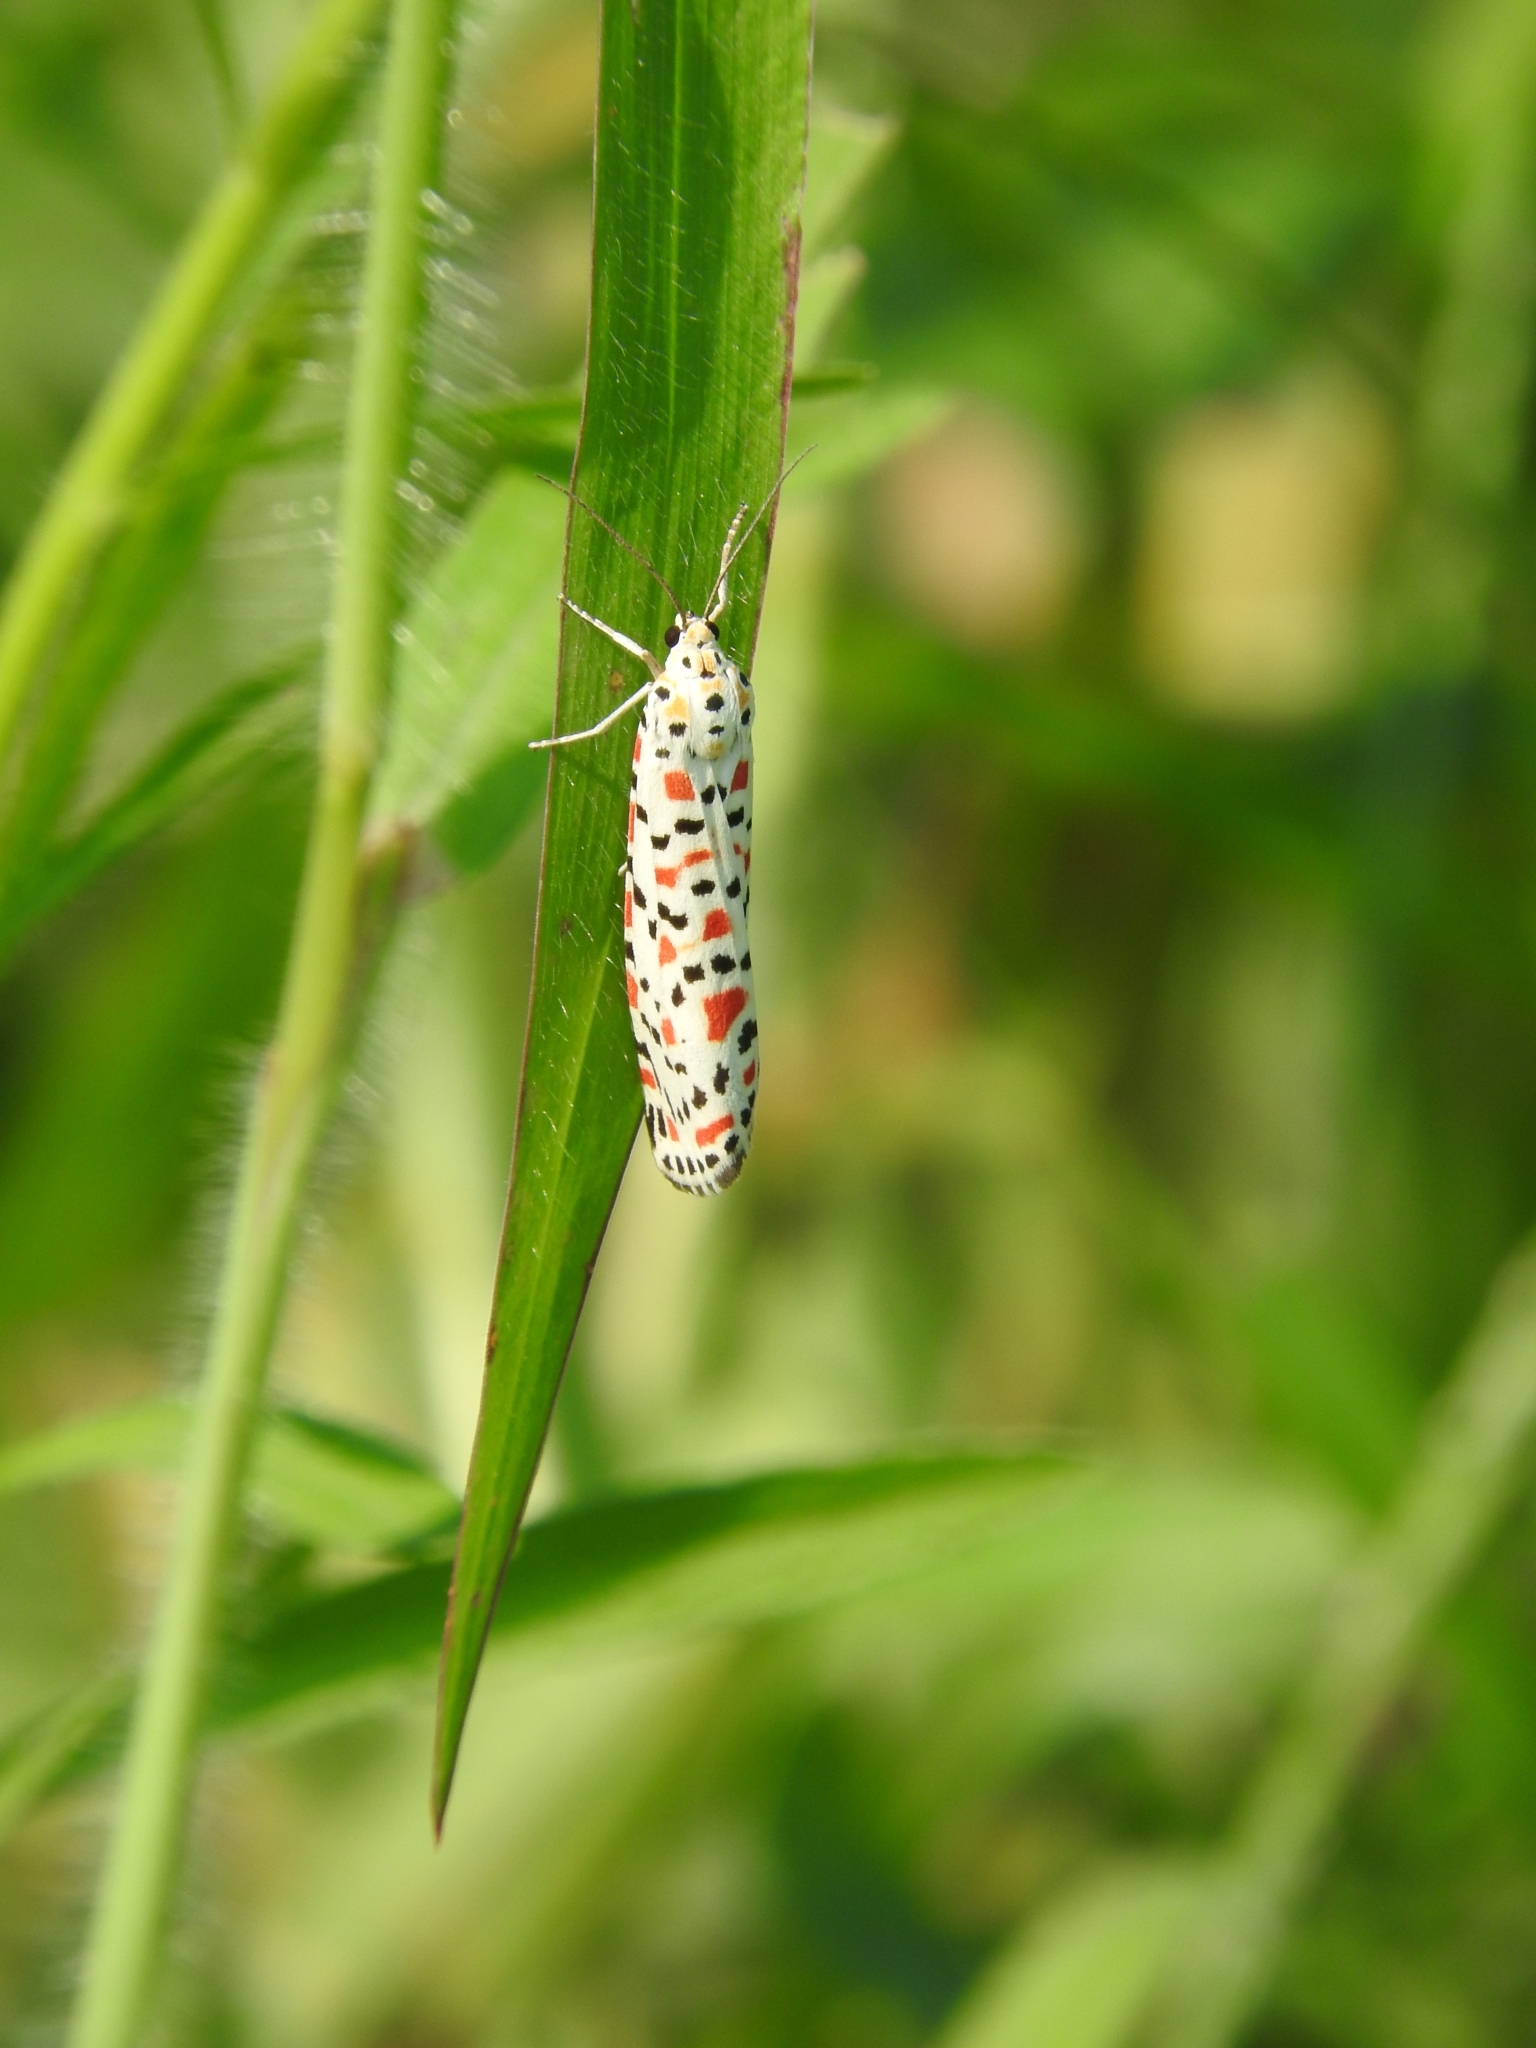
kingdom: Animalia
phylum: Arthropoda
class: Insecta
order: Lepidoptera
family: Erebidae
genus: Utetheisa
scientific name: Utetheisa pulchella
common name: Crimson speckled
